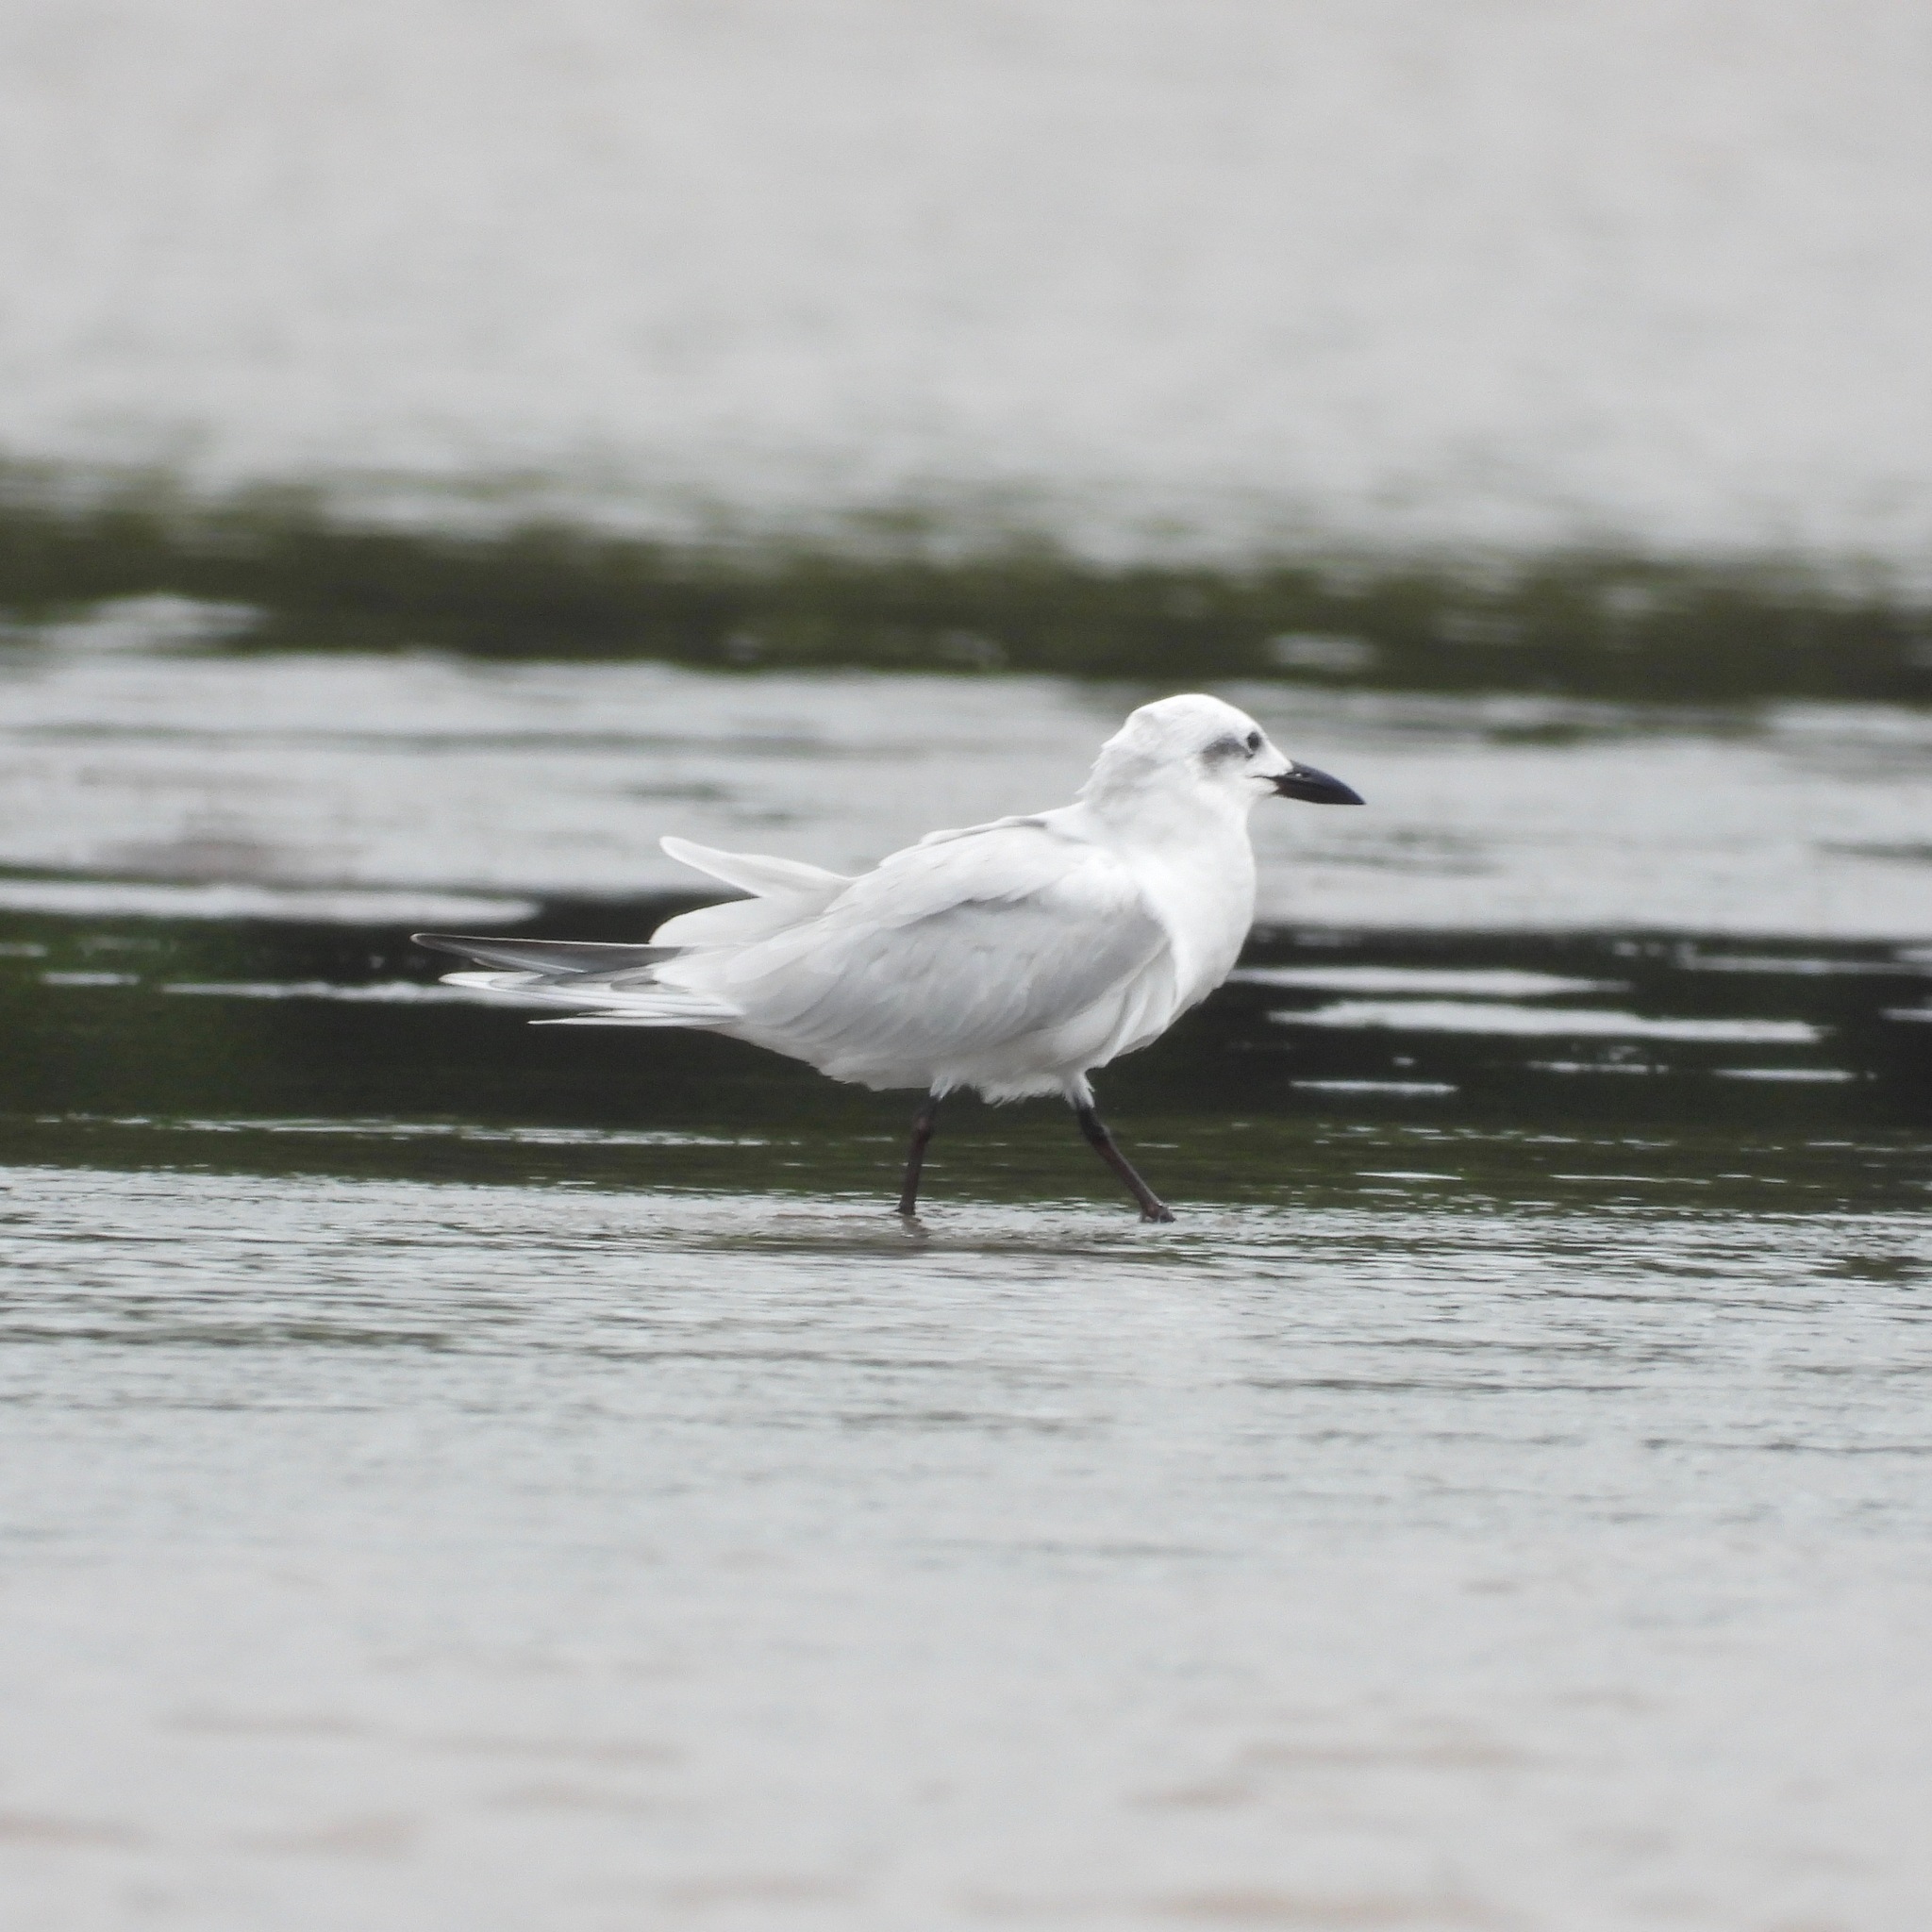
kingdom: Animalia
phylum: Chordata
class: Aves
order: Charadriiformes
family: Laridae
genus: Gelochelidon
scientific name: Gelochelidon nilotica
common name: Gull-billed tern
